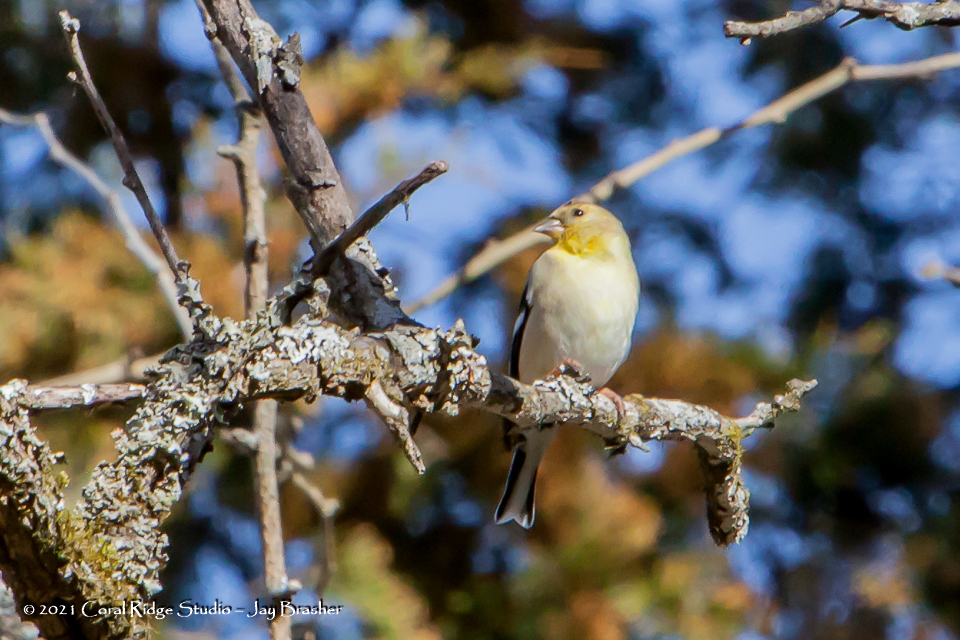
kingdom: Animalia
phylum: Chordata
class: Aves
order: Passeriformes
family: Fringillidae
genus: Spinus
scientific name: Spinus tristis
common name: American goldfinch
